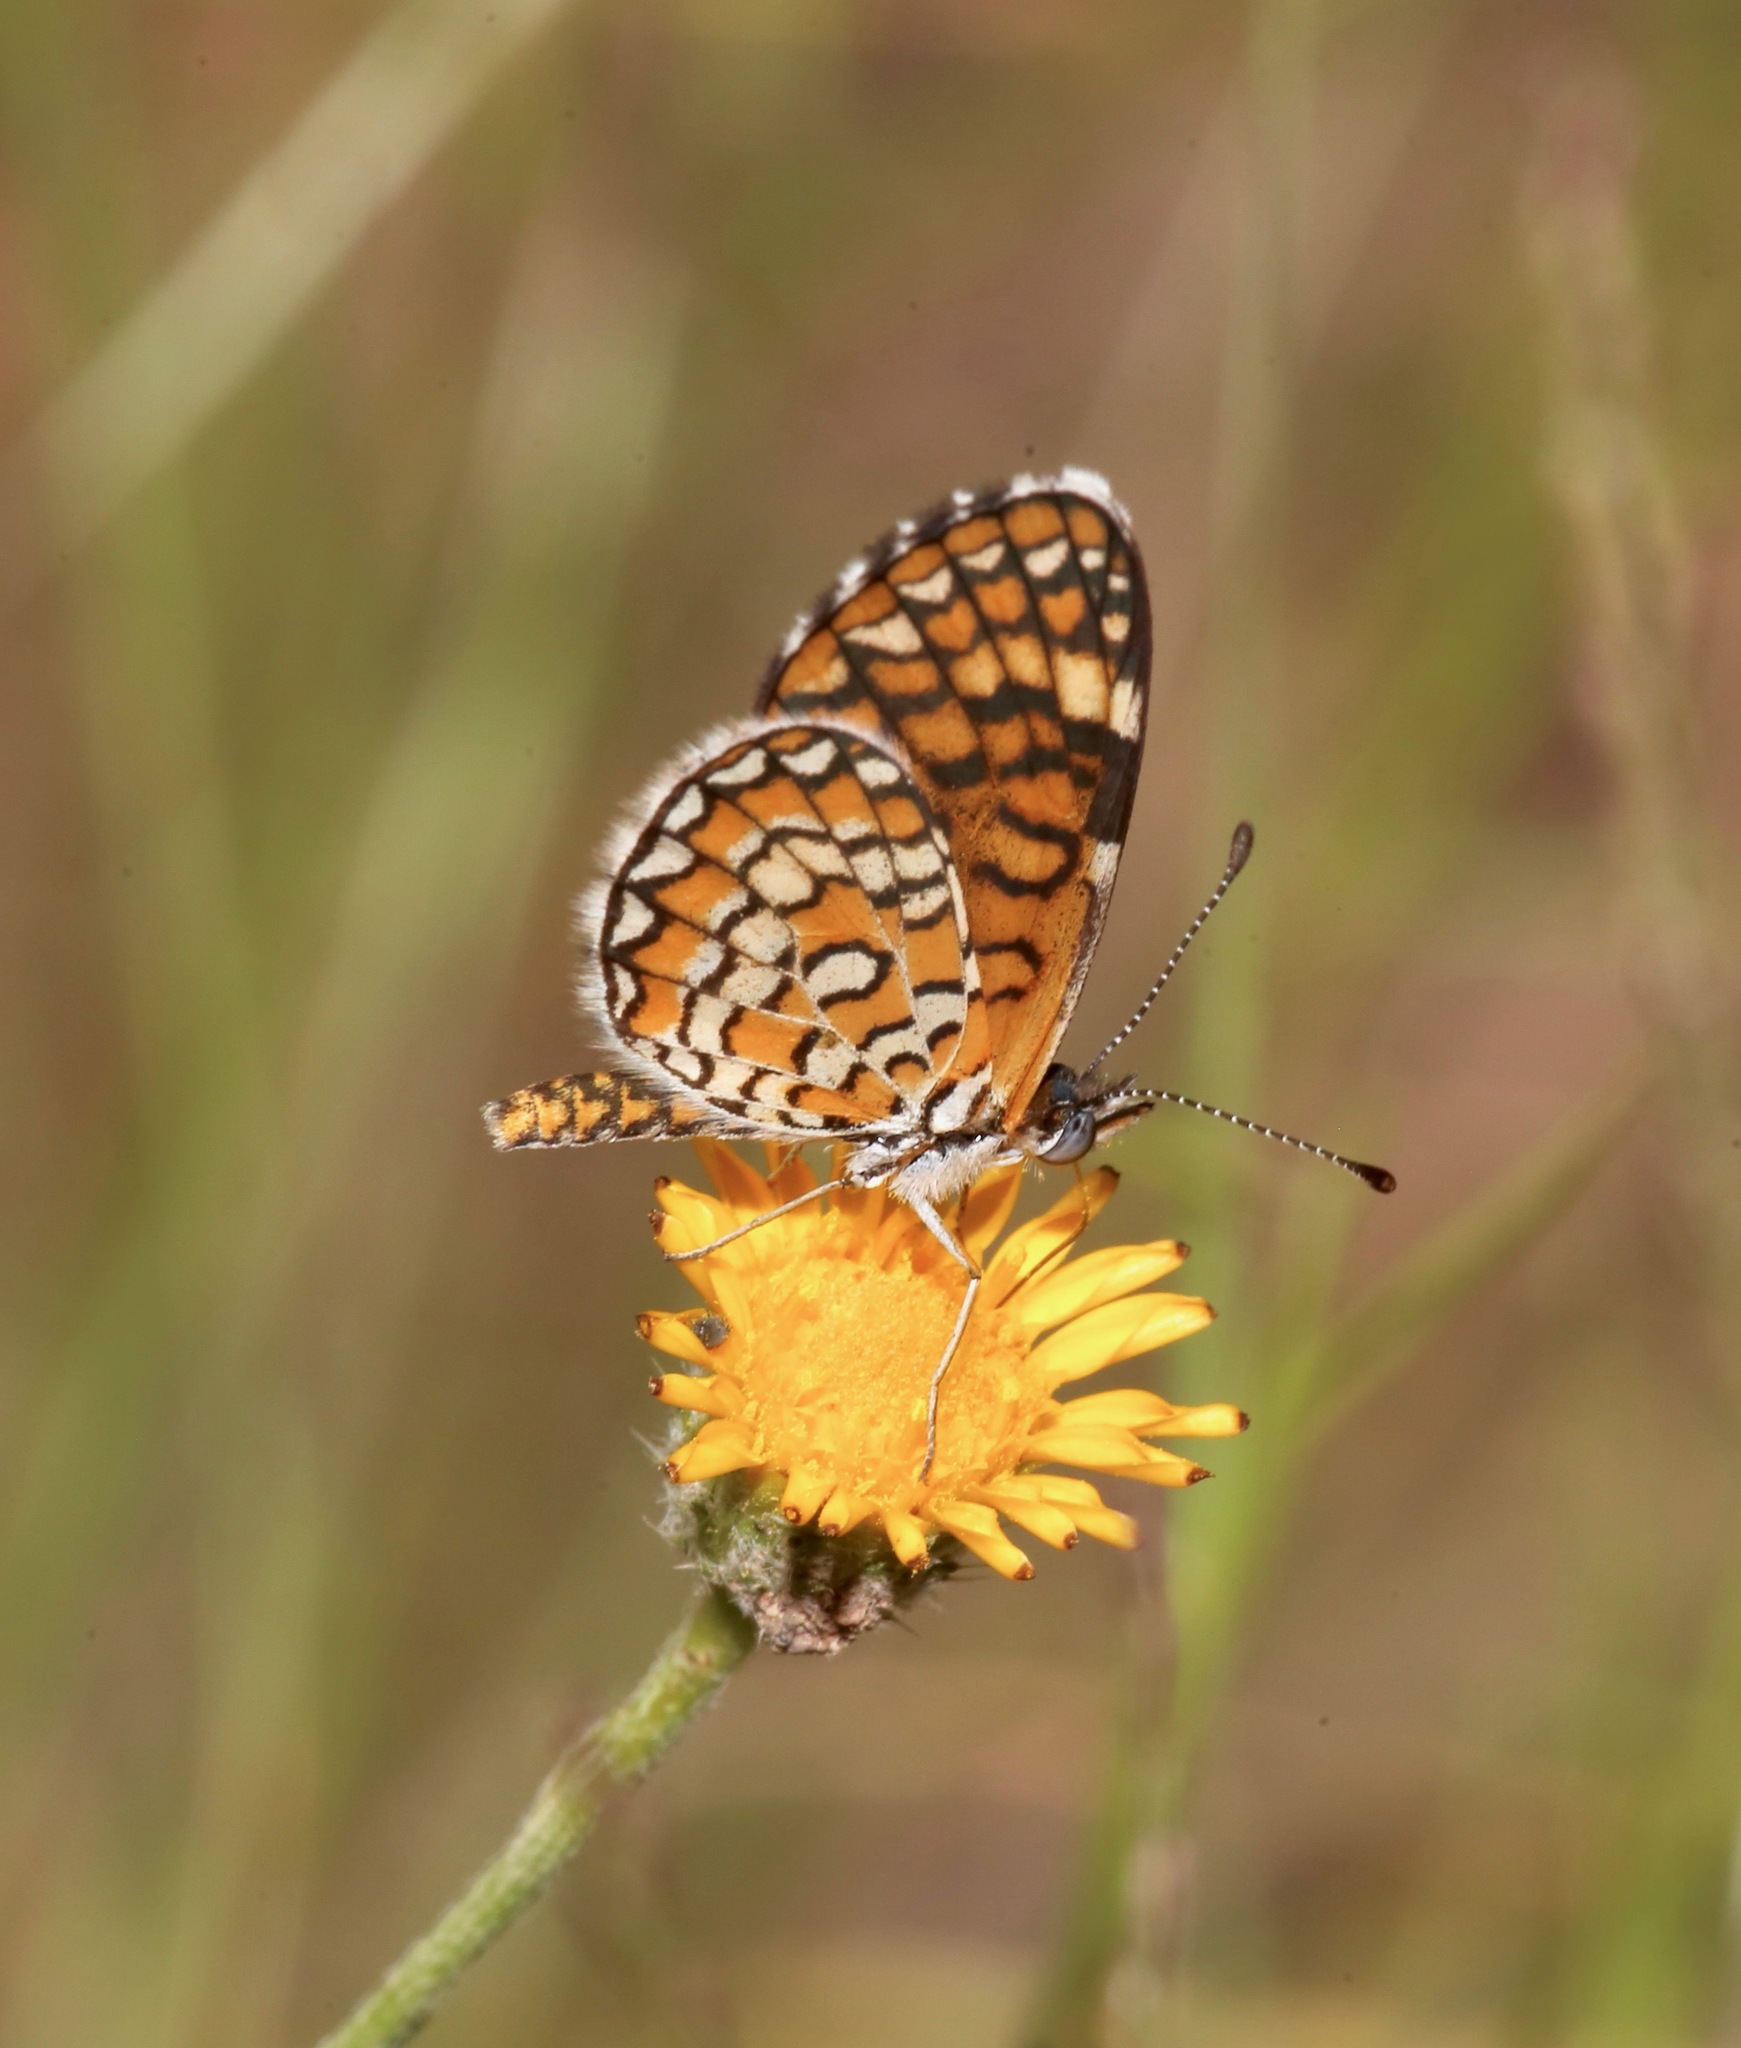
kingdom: Animalia
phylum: Arthropoda
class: Insecta
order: Lepidoptera
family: Nymphalidae
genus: Dymasia
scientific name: Dymasia dymas
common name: Tiny checkerspot
